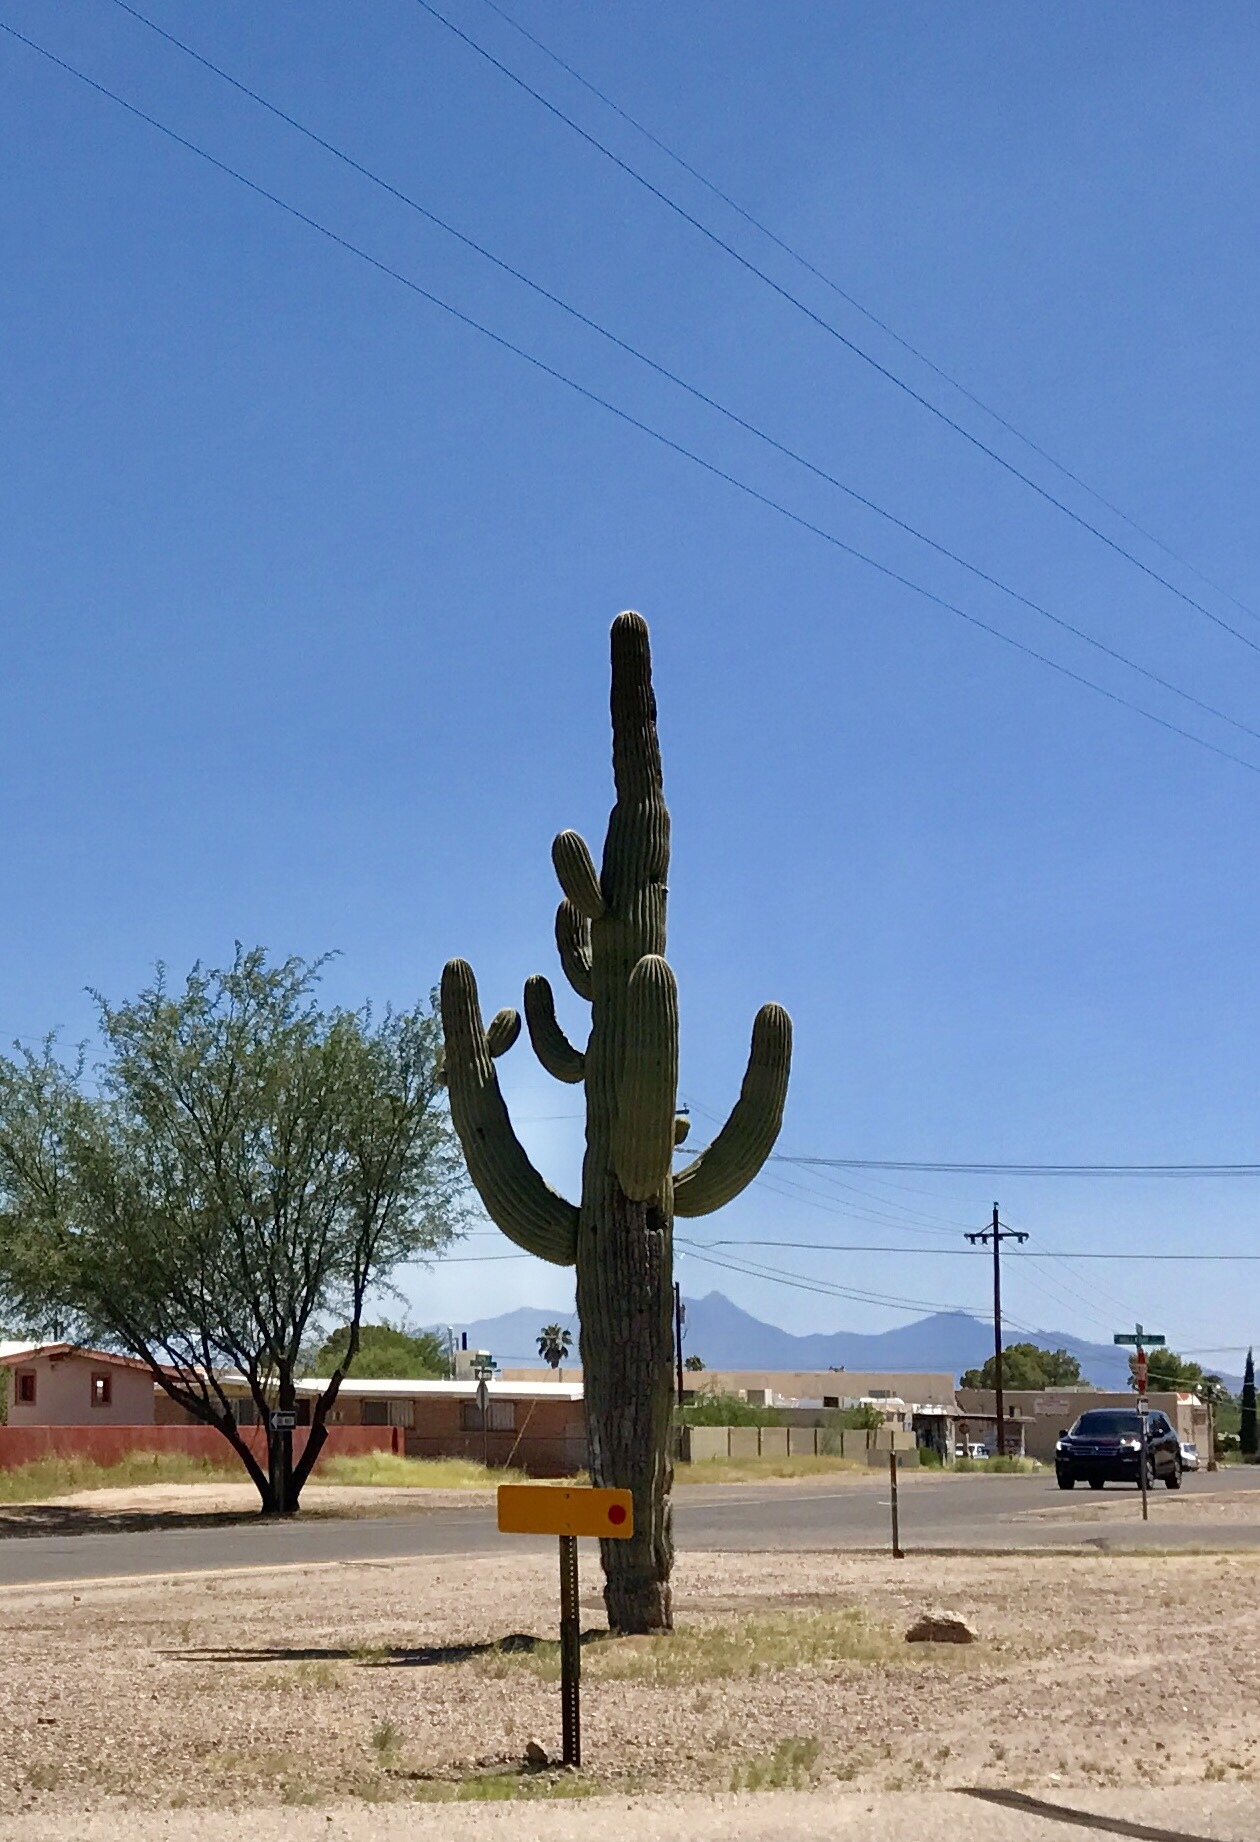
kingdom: Plantae
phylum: Tracheophyta
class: Magnoliopsida
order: Caryophyllales
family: Cactaceae
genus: Carnegiea
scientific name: Carnegiea gigantea
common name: Saguaro
